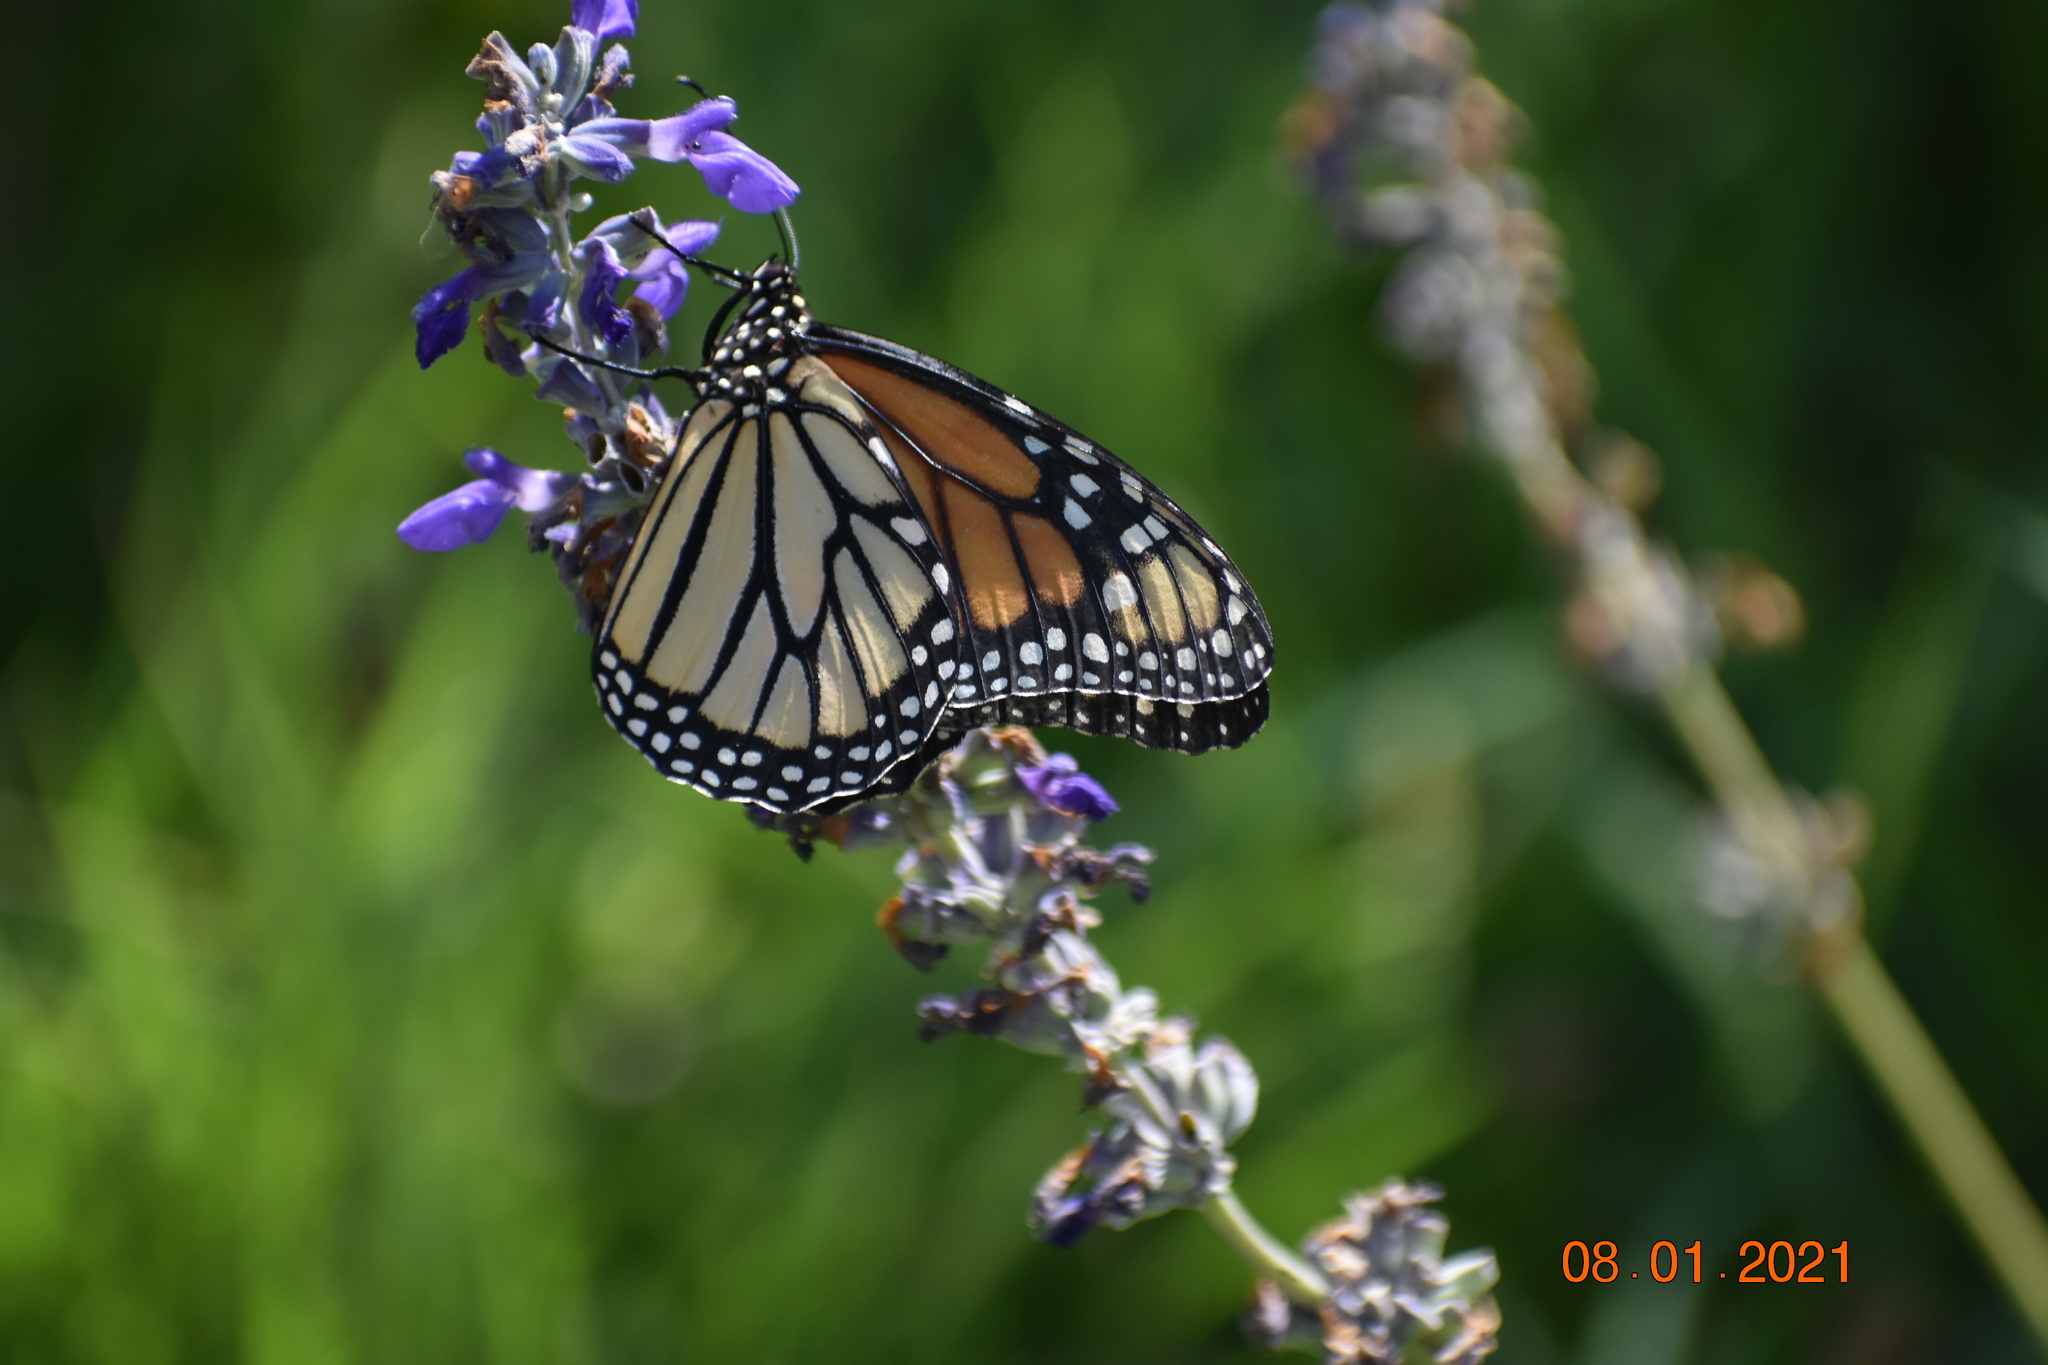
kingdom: Animalia
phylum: Arthropoda
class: Insecta
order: Lepidoptera
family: Nymphalidae
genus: Danaus
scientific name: Danaus plexippus
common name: Monarch
